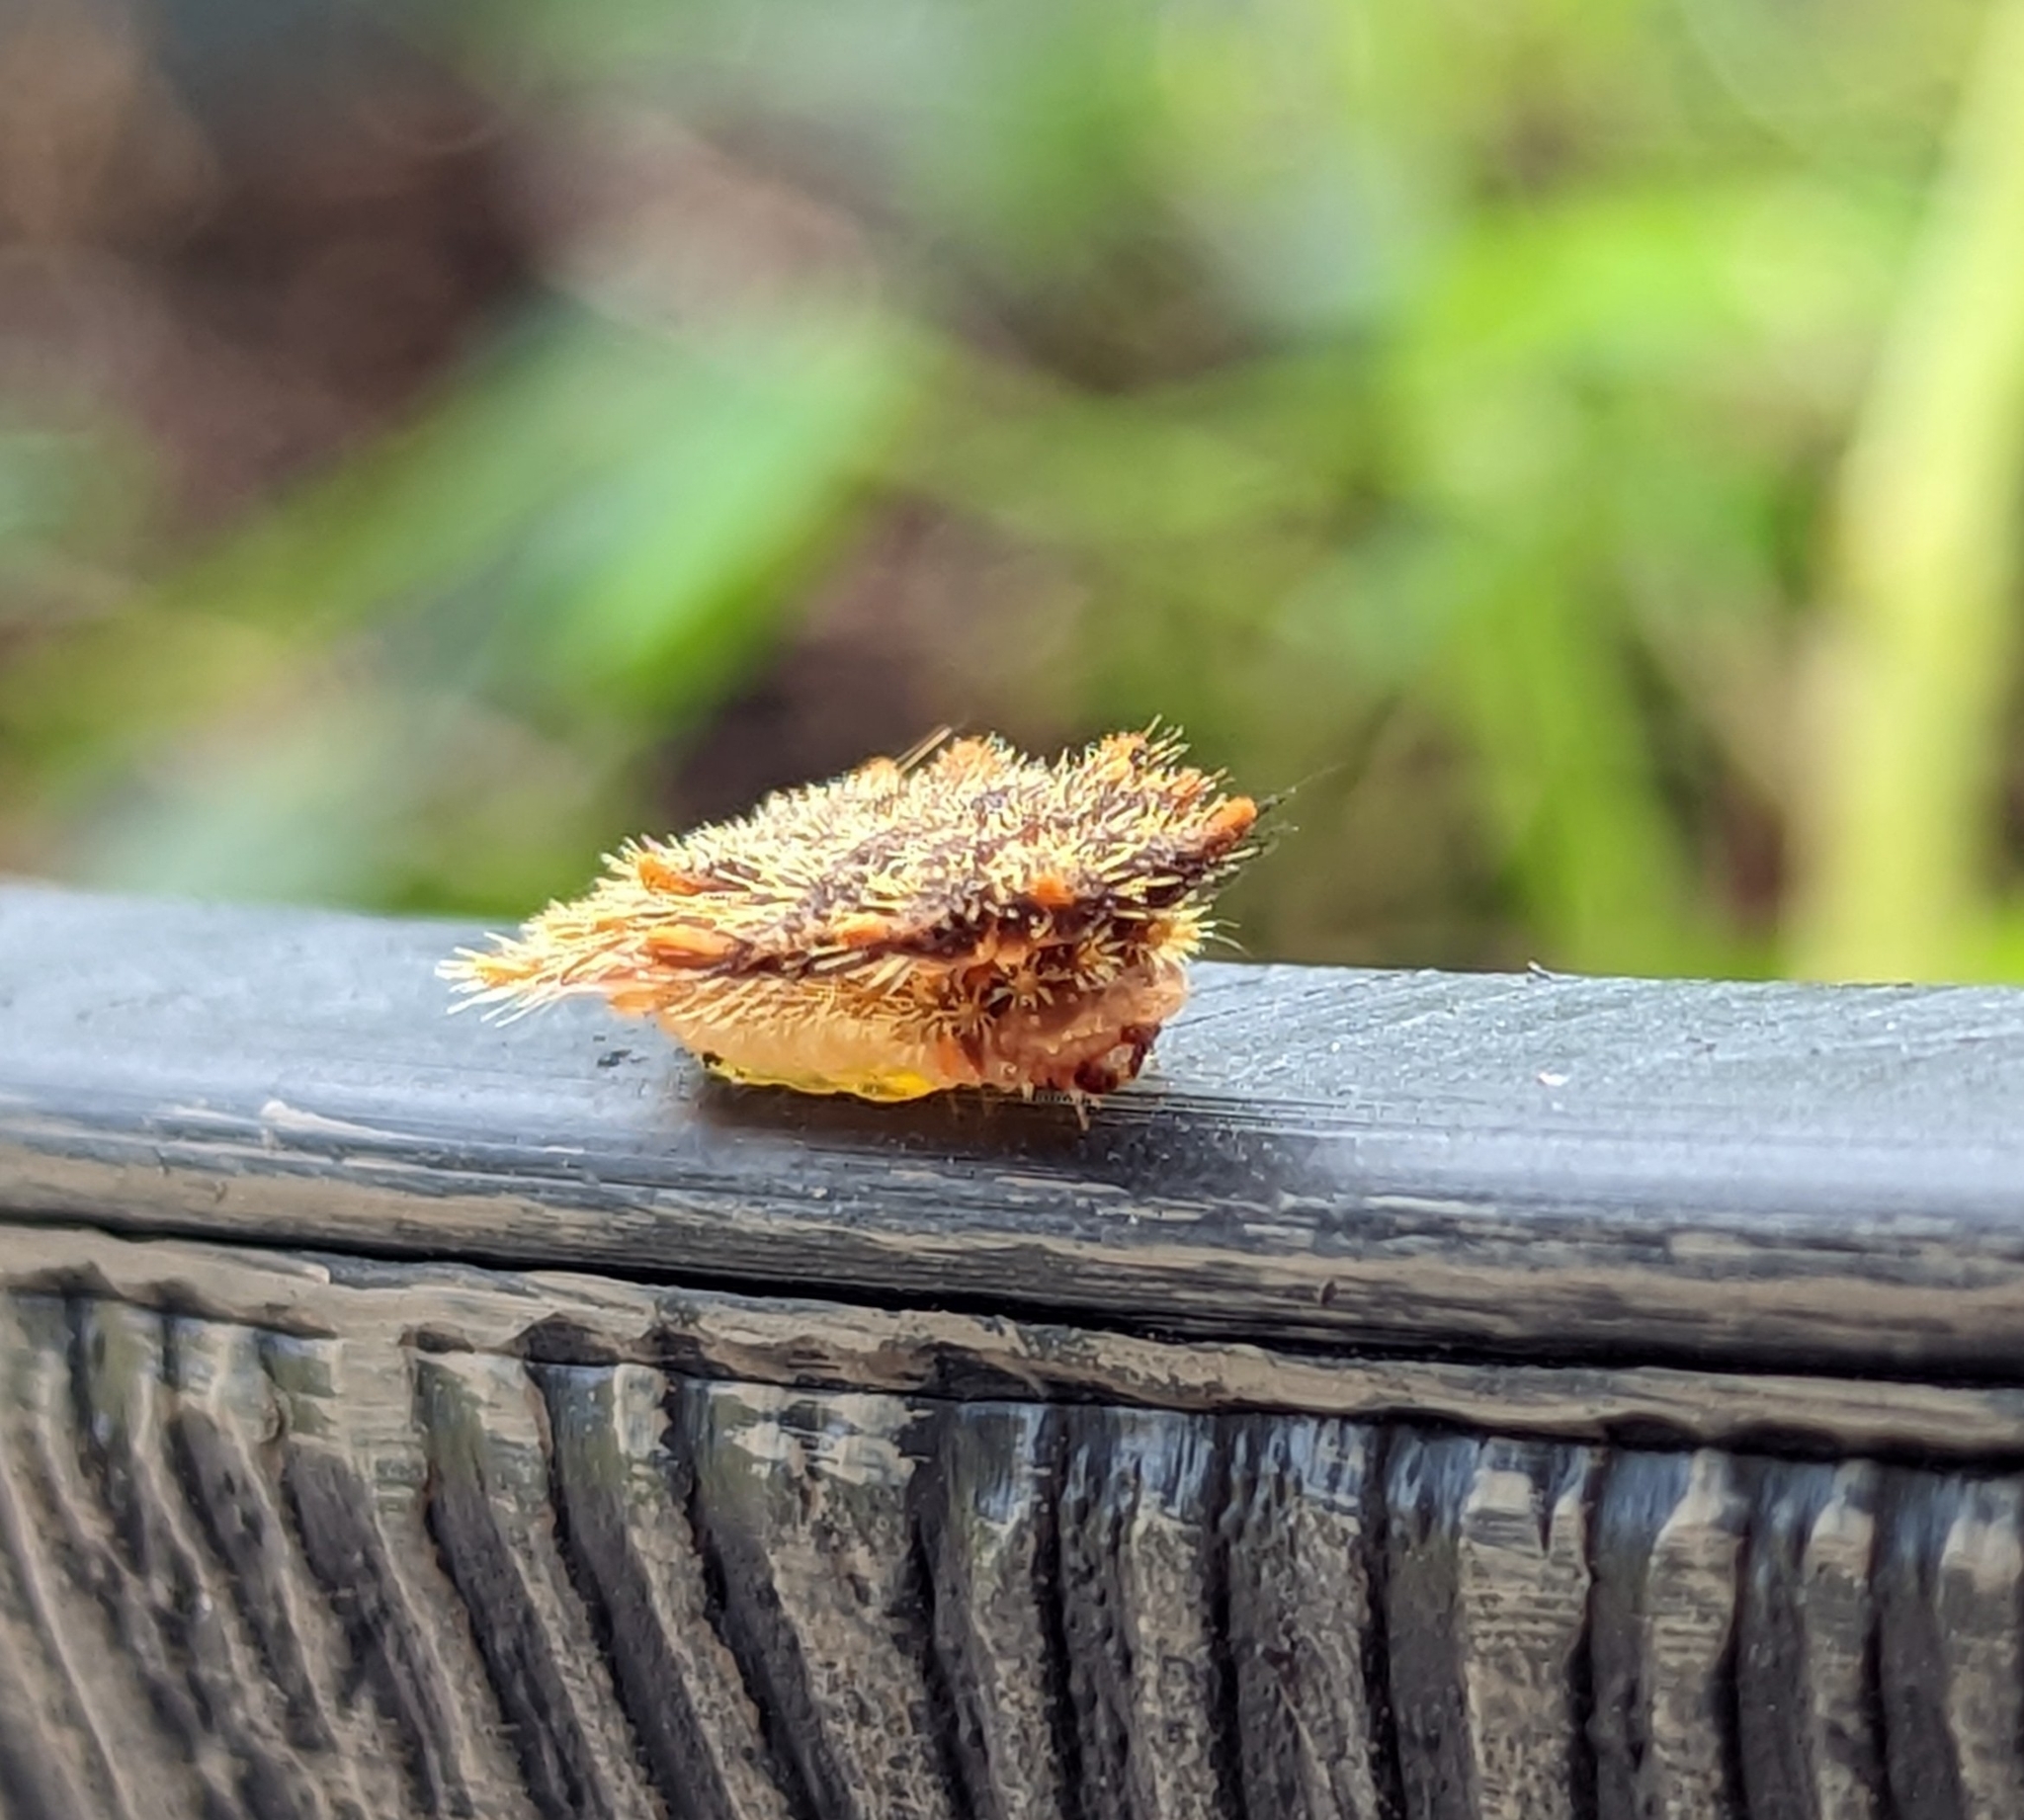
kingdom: Animalia
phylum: Arthropoda
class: Insecta
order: Lepidoptera
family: Limacodidae
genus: Phobetron
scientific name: Phobetron pithecium
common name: Hag moth
